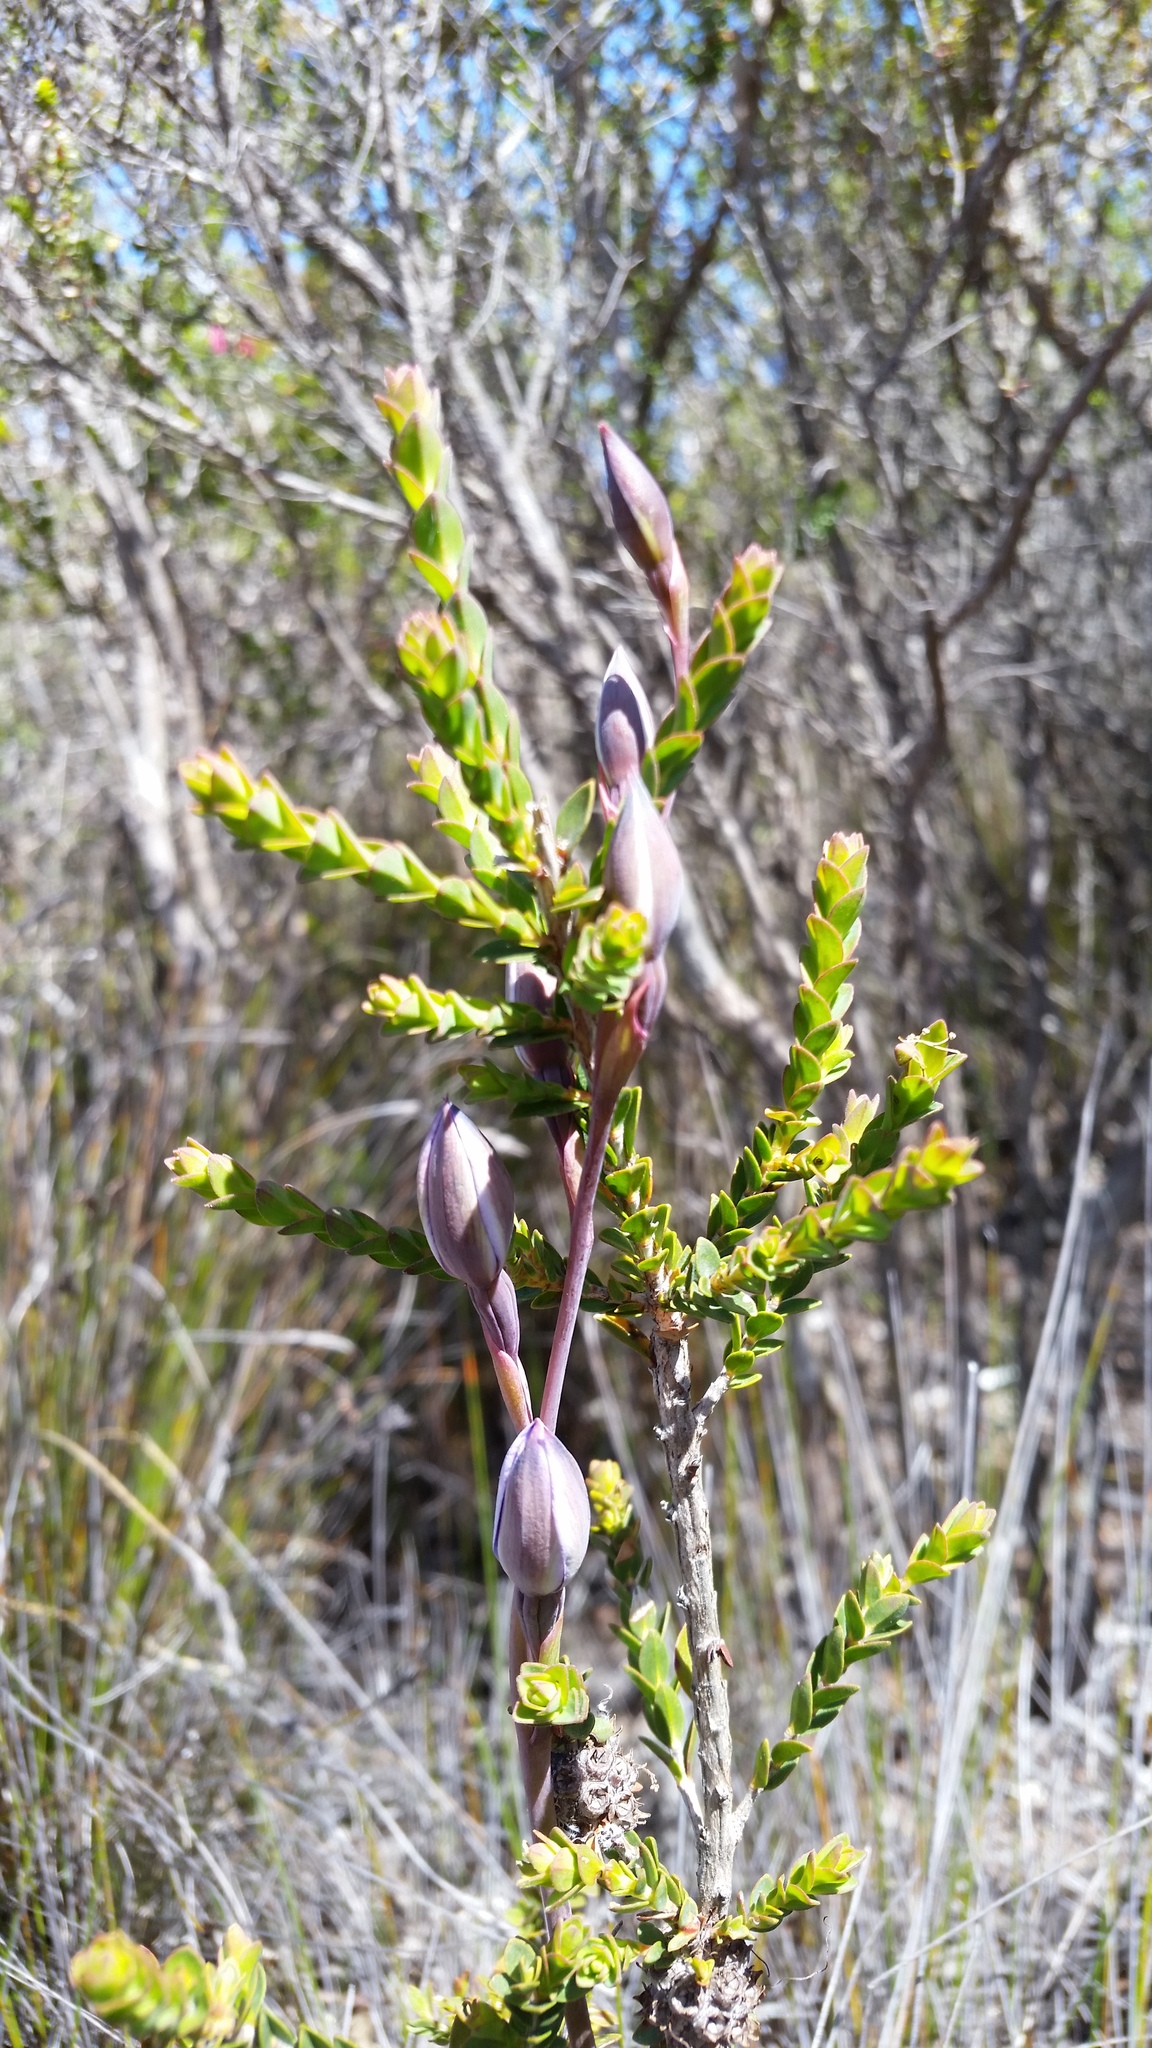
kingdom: Plantae
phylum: Tracheophyta
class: Liliopsida
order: Asparagales
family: Orchidaceae
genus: Thelymitra
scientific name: Thelymitra cornicina
